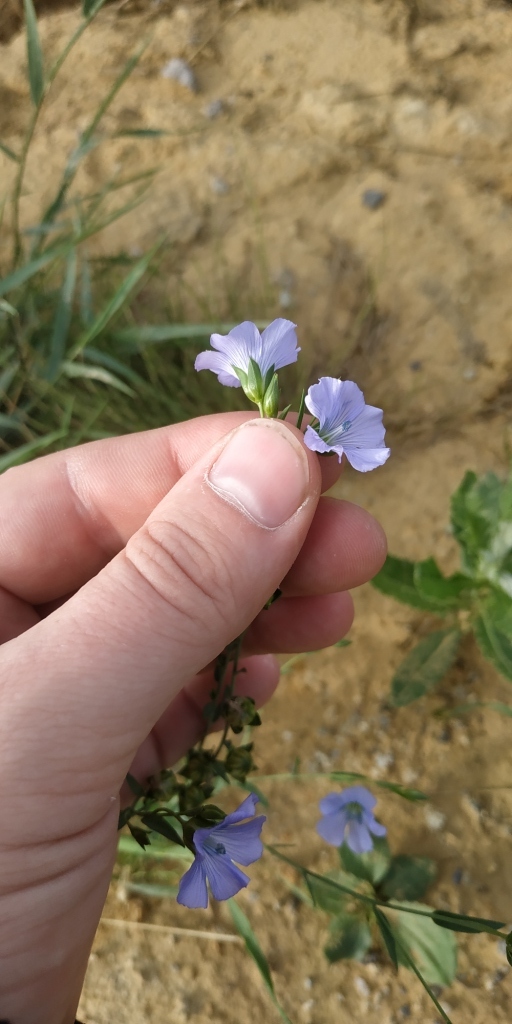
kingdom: Plantae
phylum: Tracheophyta
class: Magnoliopsida
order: Malpighiales
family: Linaceae
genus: Linum
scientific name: Linum usitatissimum
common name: Flax
